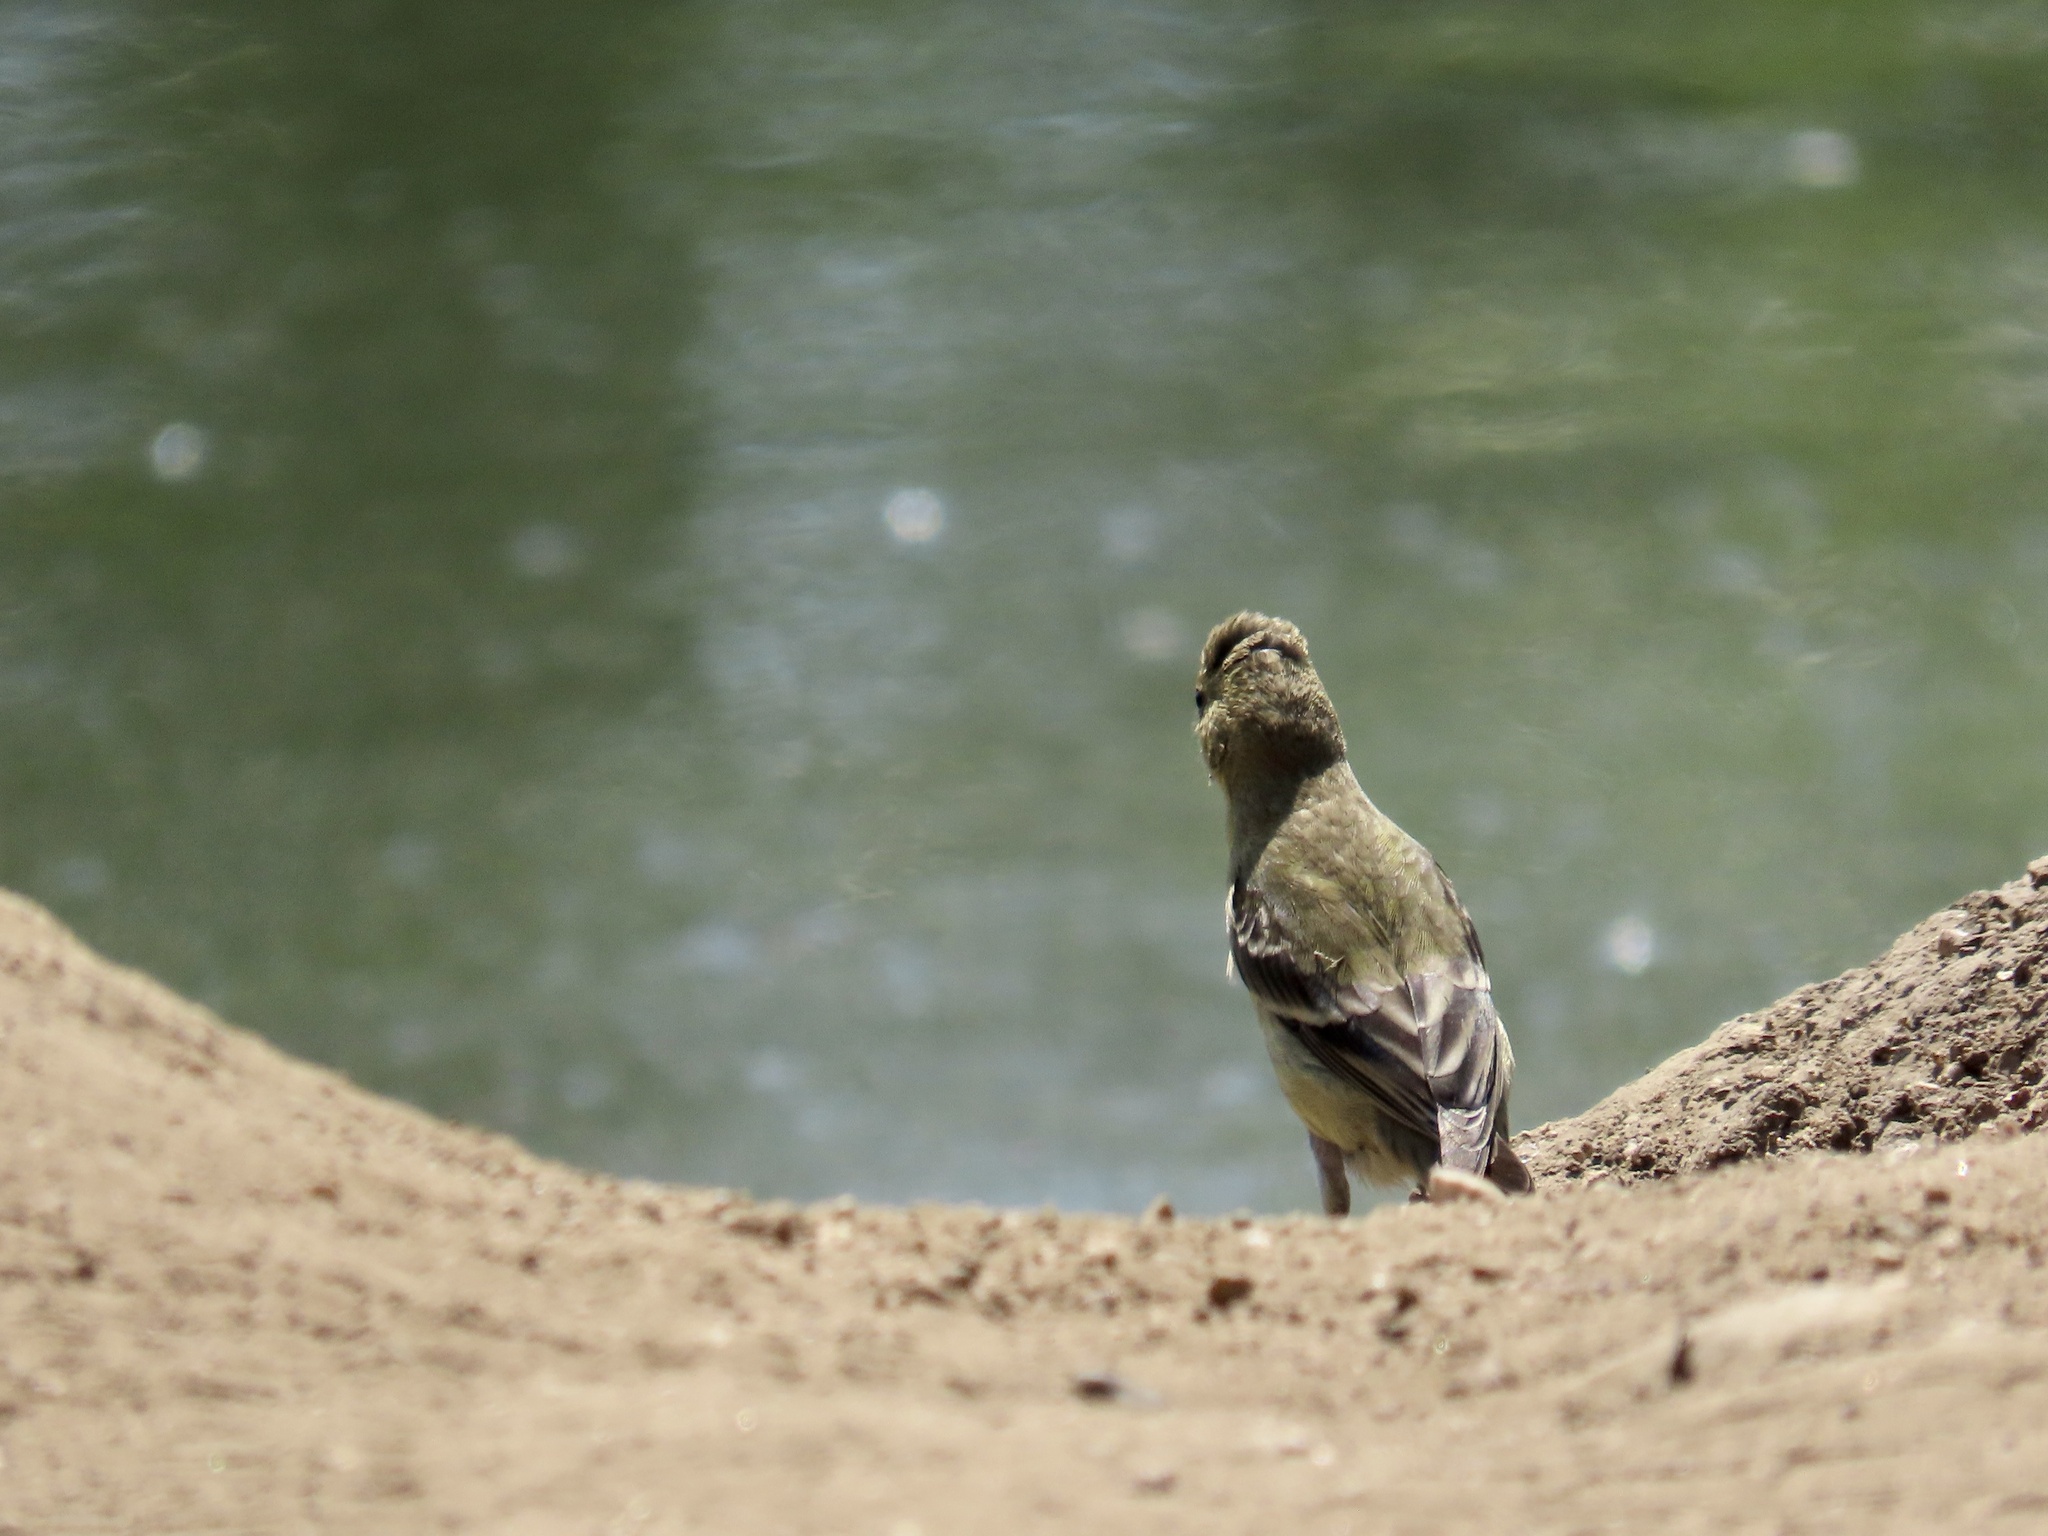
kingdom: Animalia
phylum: Chordata
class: Aves
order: Passeriformes
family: Fringillidae
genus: Spinus
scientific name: Spinus psaltria
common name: Lesser goldfinch
